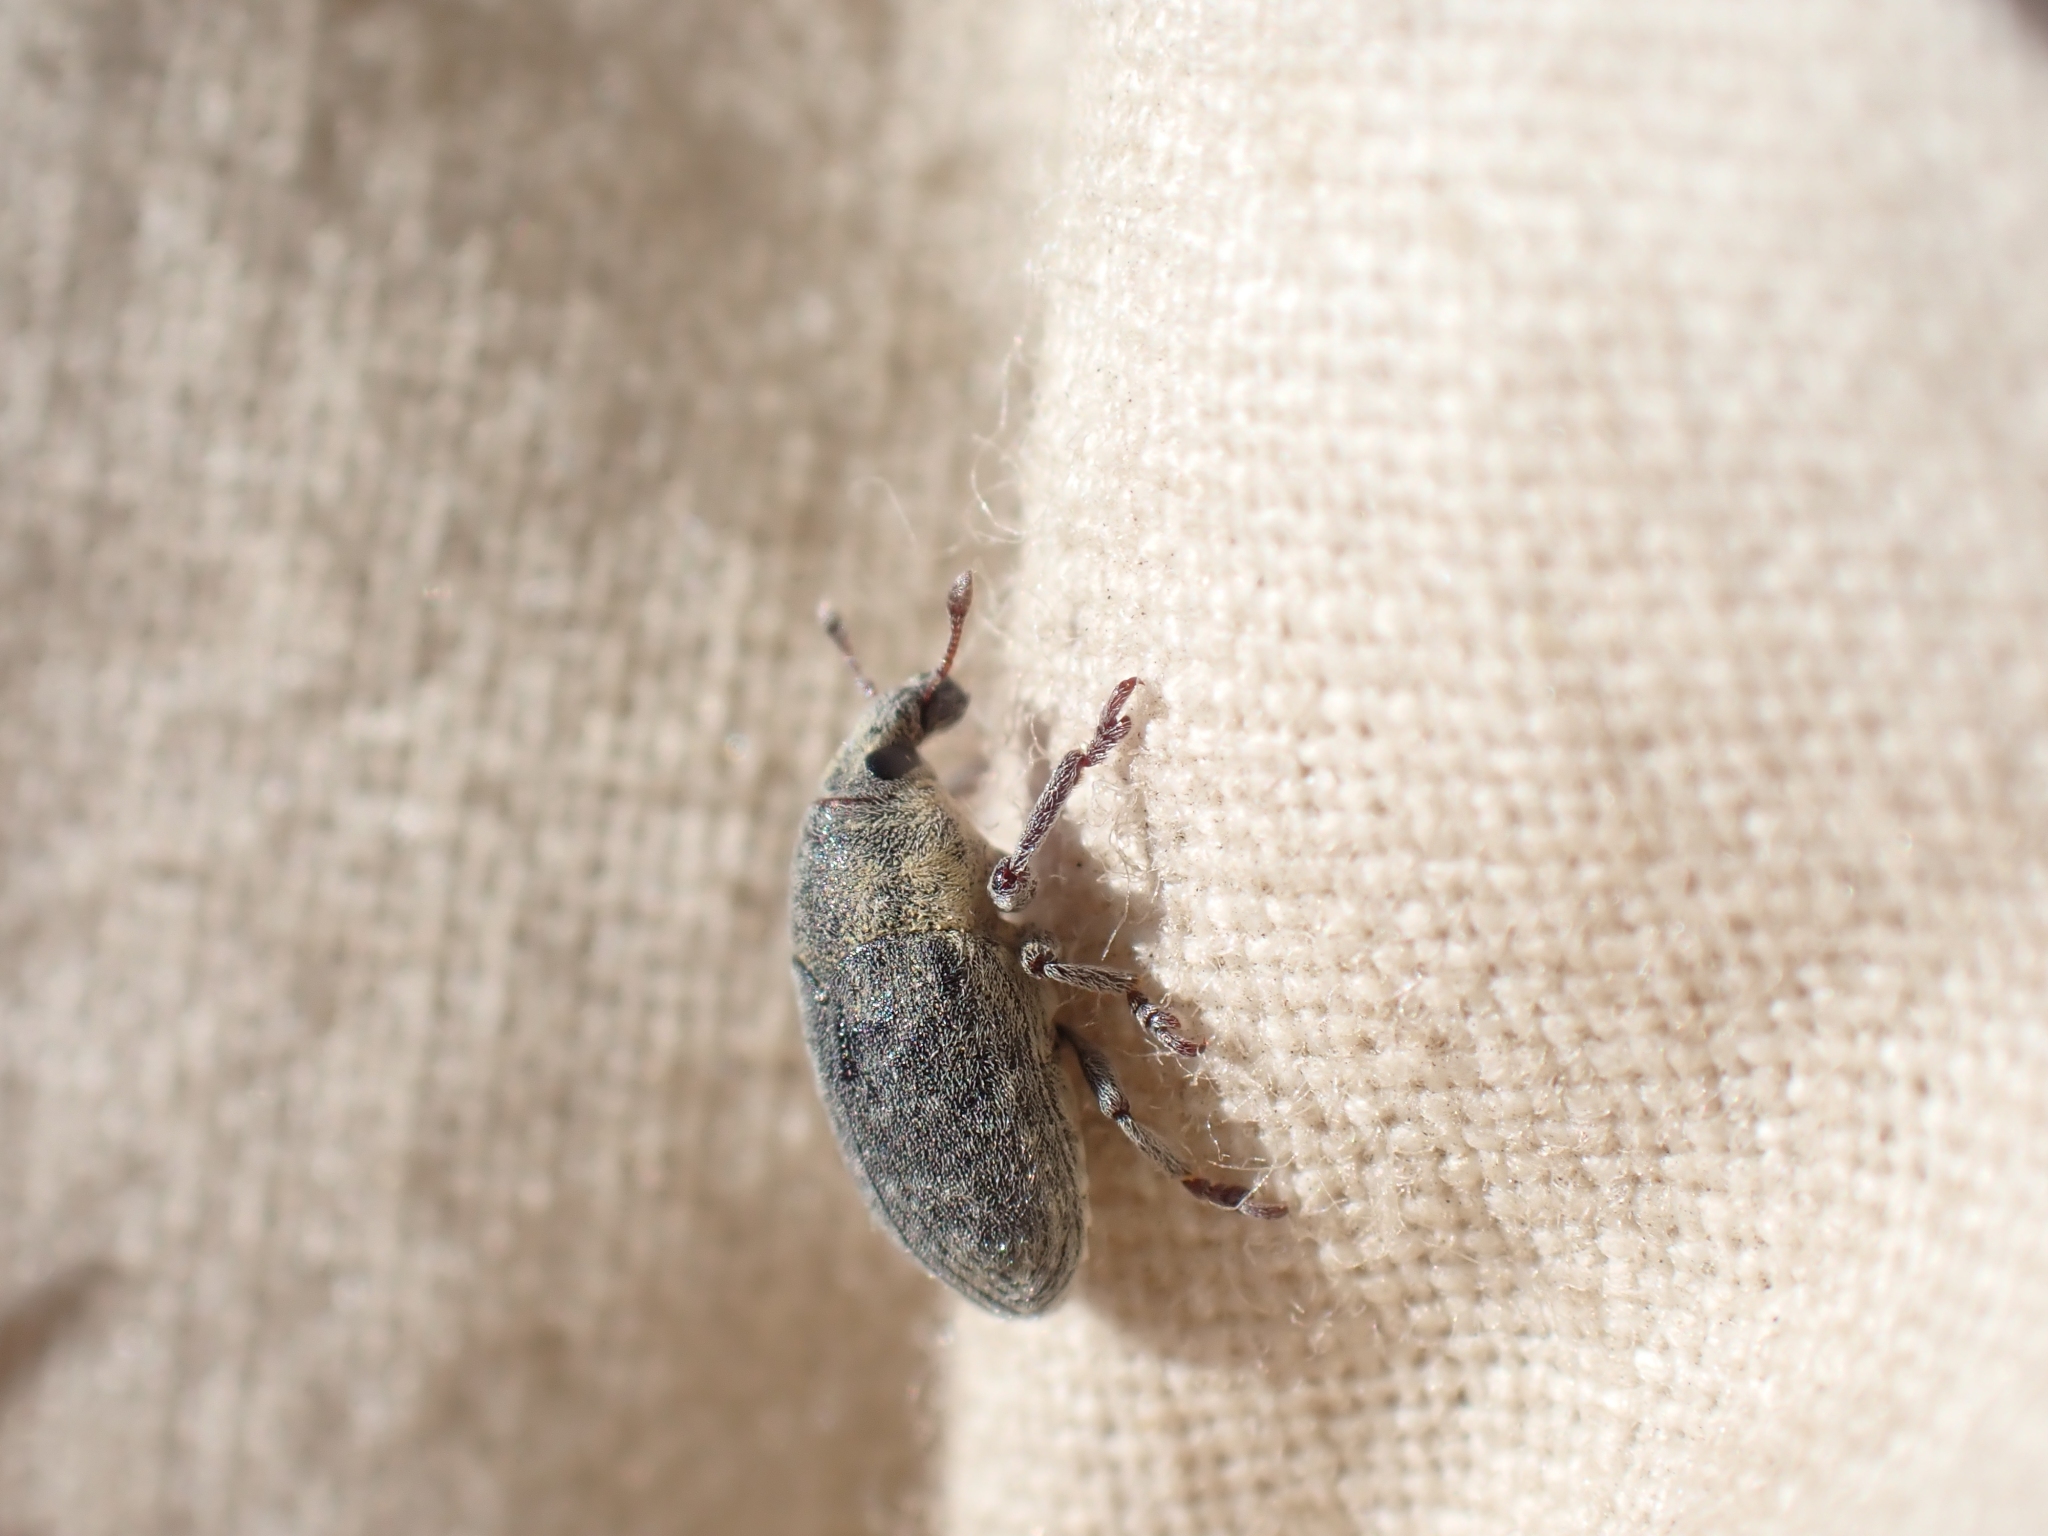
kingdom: Animalia
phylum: Arthropoda
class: Insecta
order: Coleoptera
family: Curculionidae
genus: Larinus
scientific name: Larinus minutus
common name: Weevil
